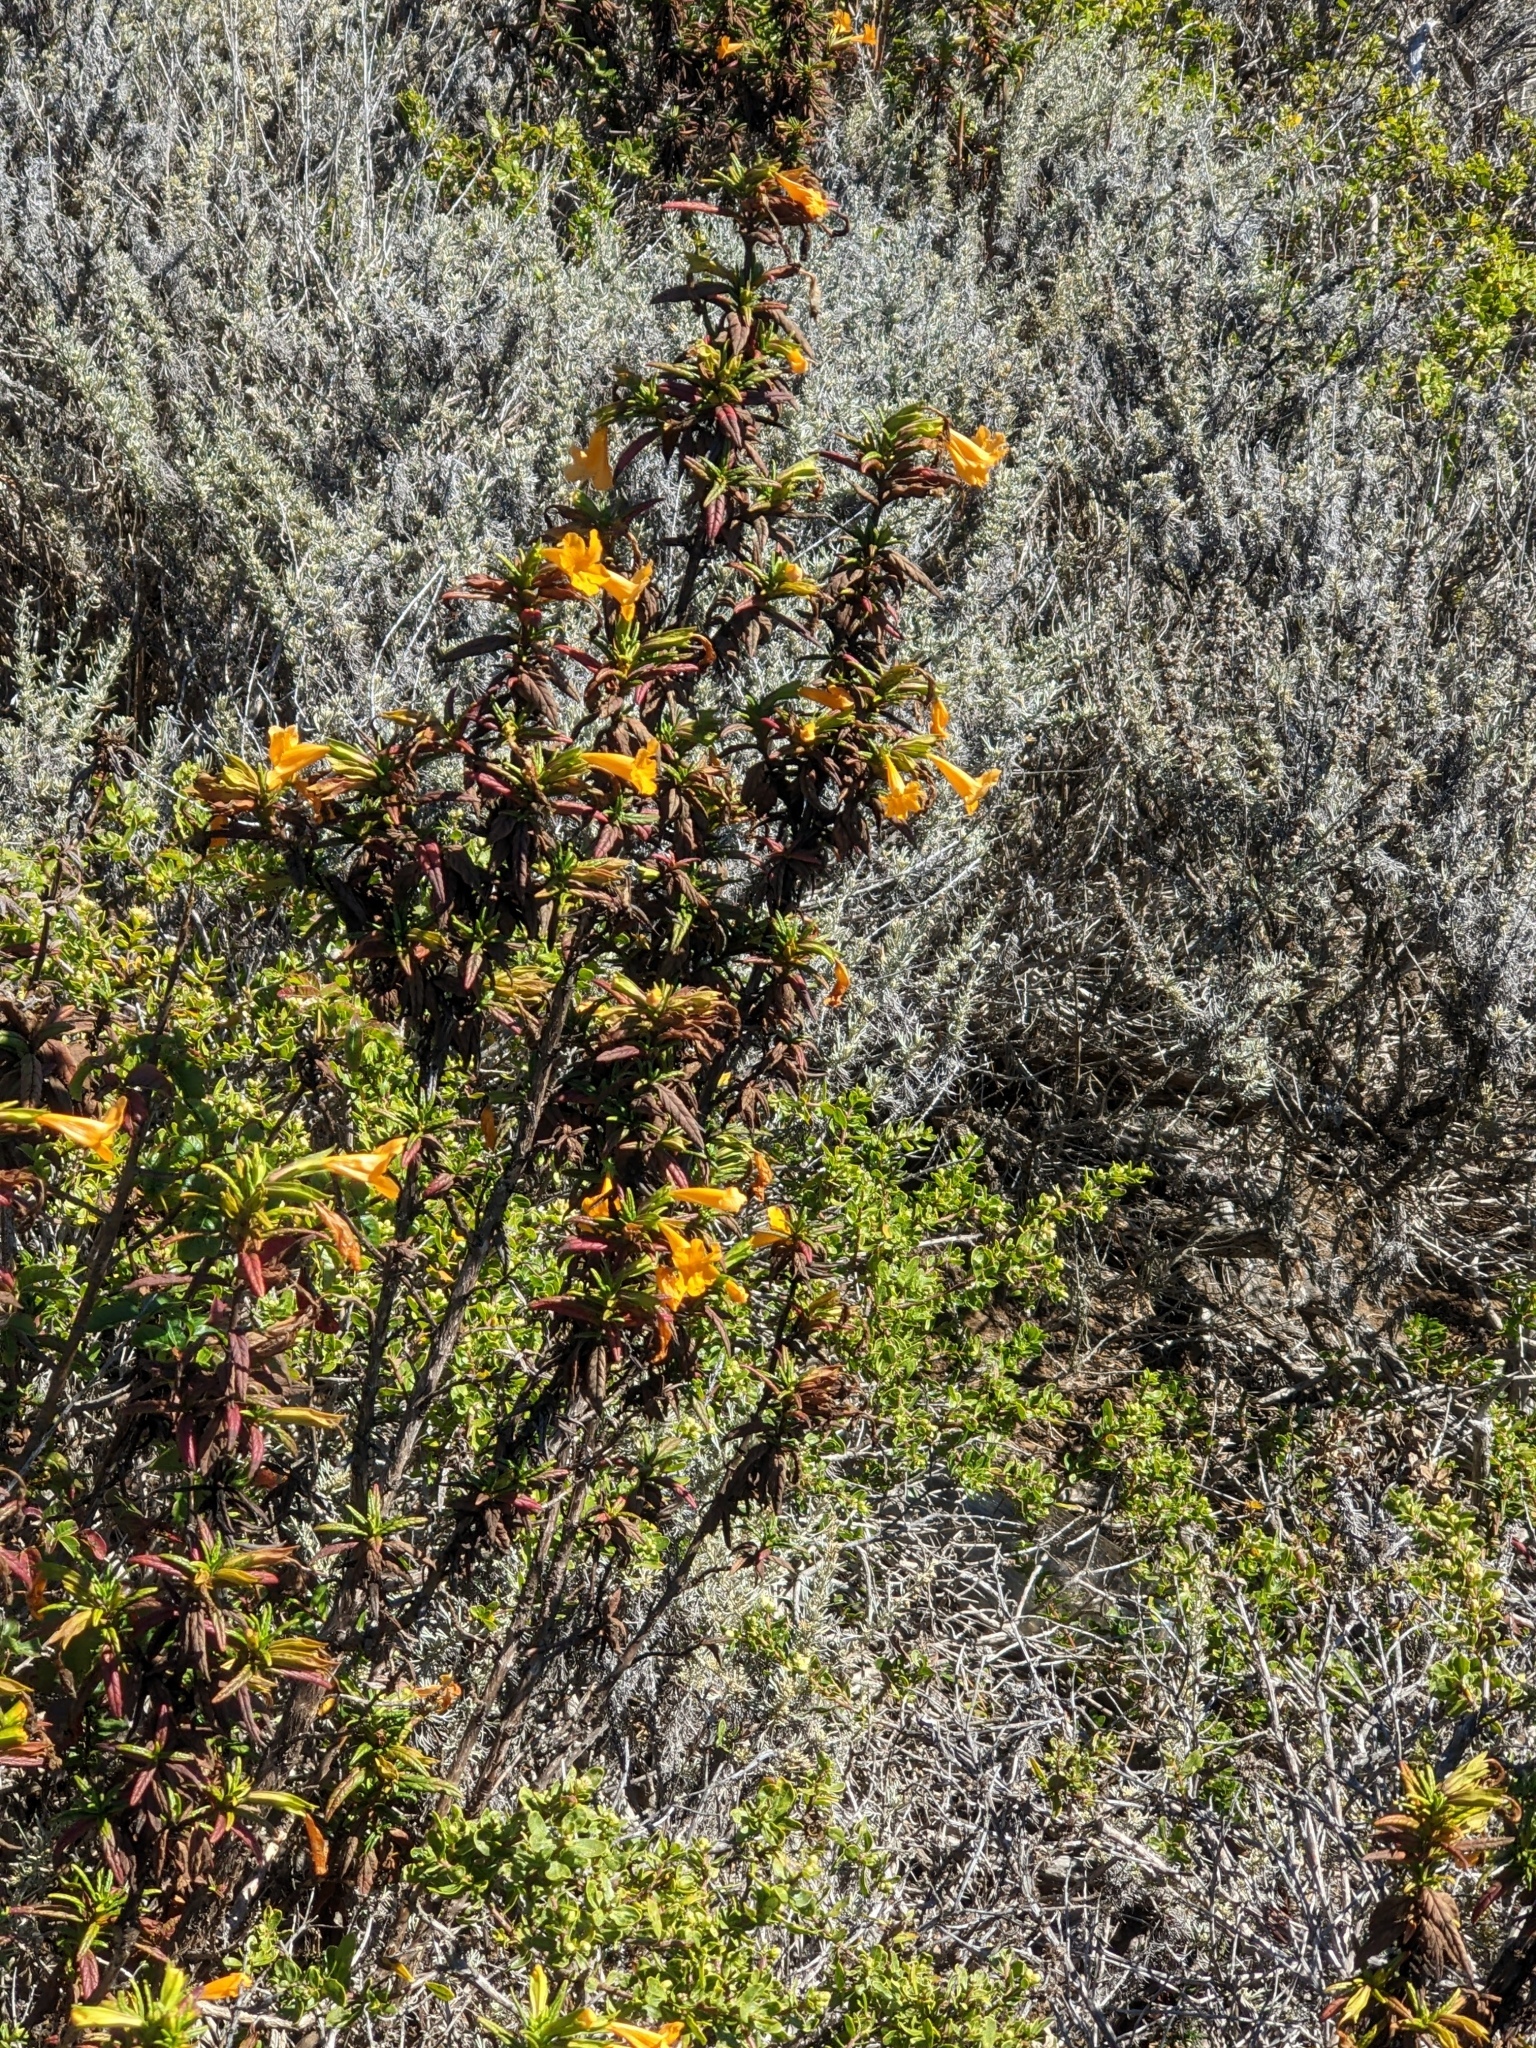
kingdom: Plantae
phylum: Tracheophyta
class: Magnoliopsida
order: Lamiales
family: Phrymaceae
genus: Diplacus
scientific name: Diplacus aurantiacus
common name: Bush monkey-flower
